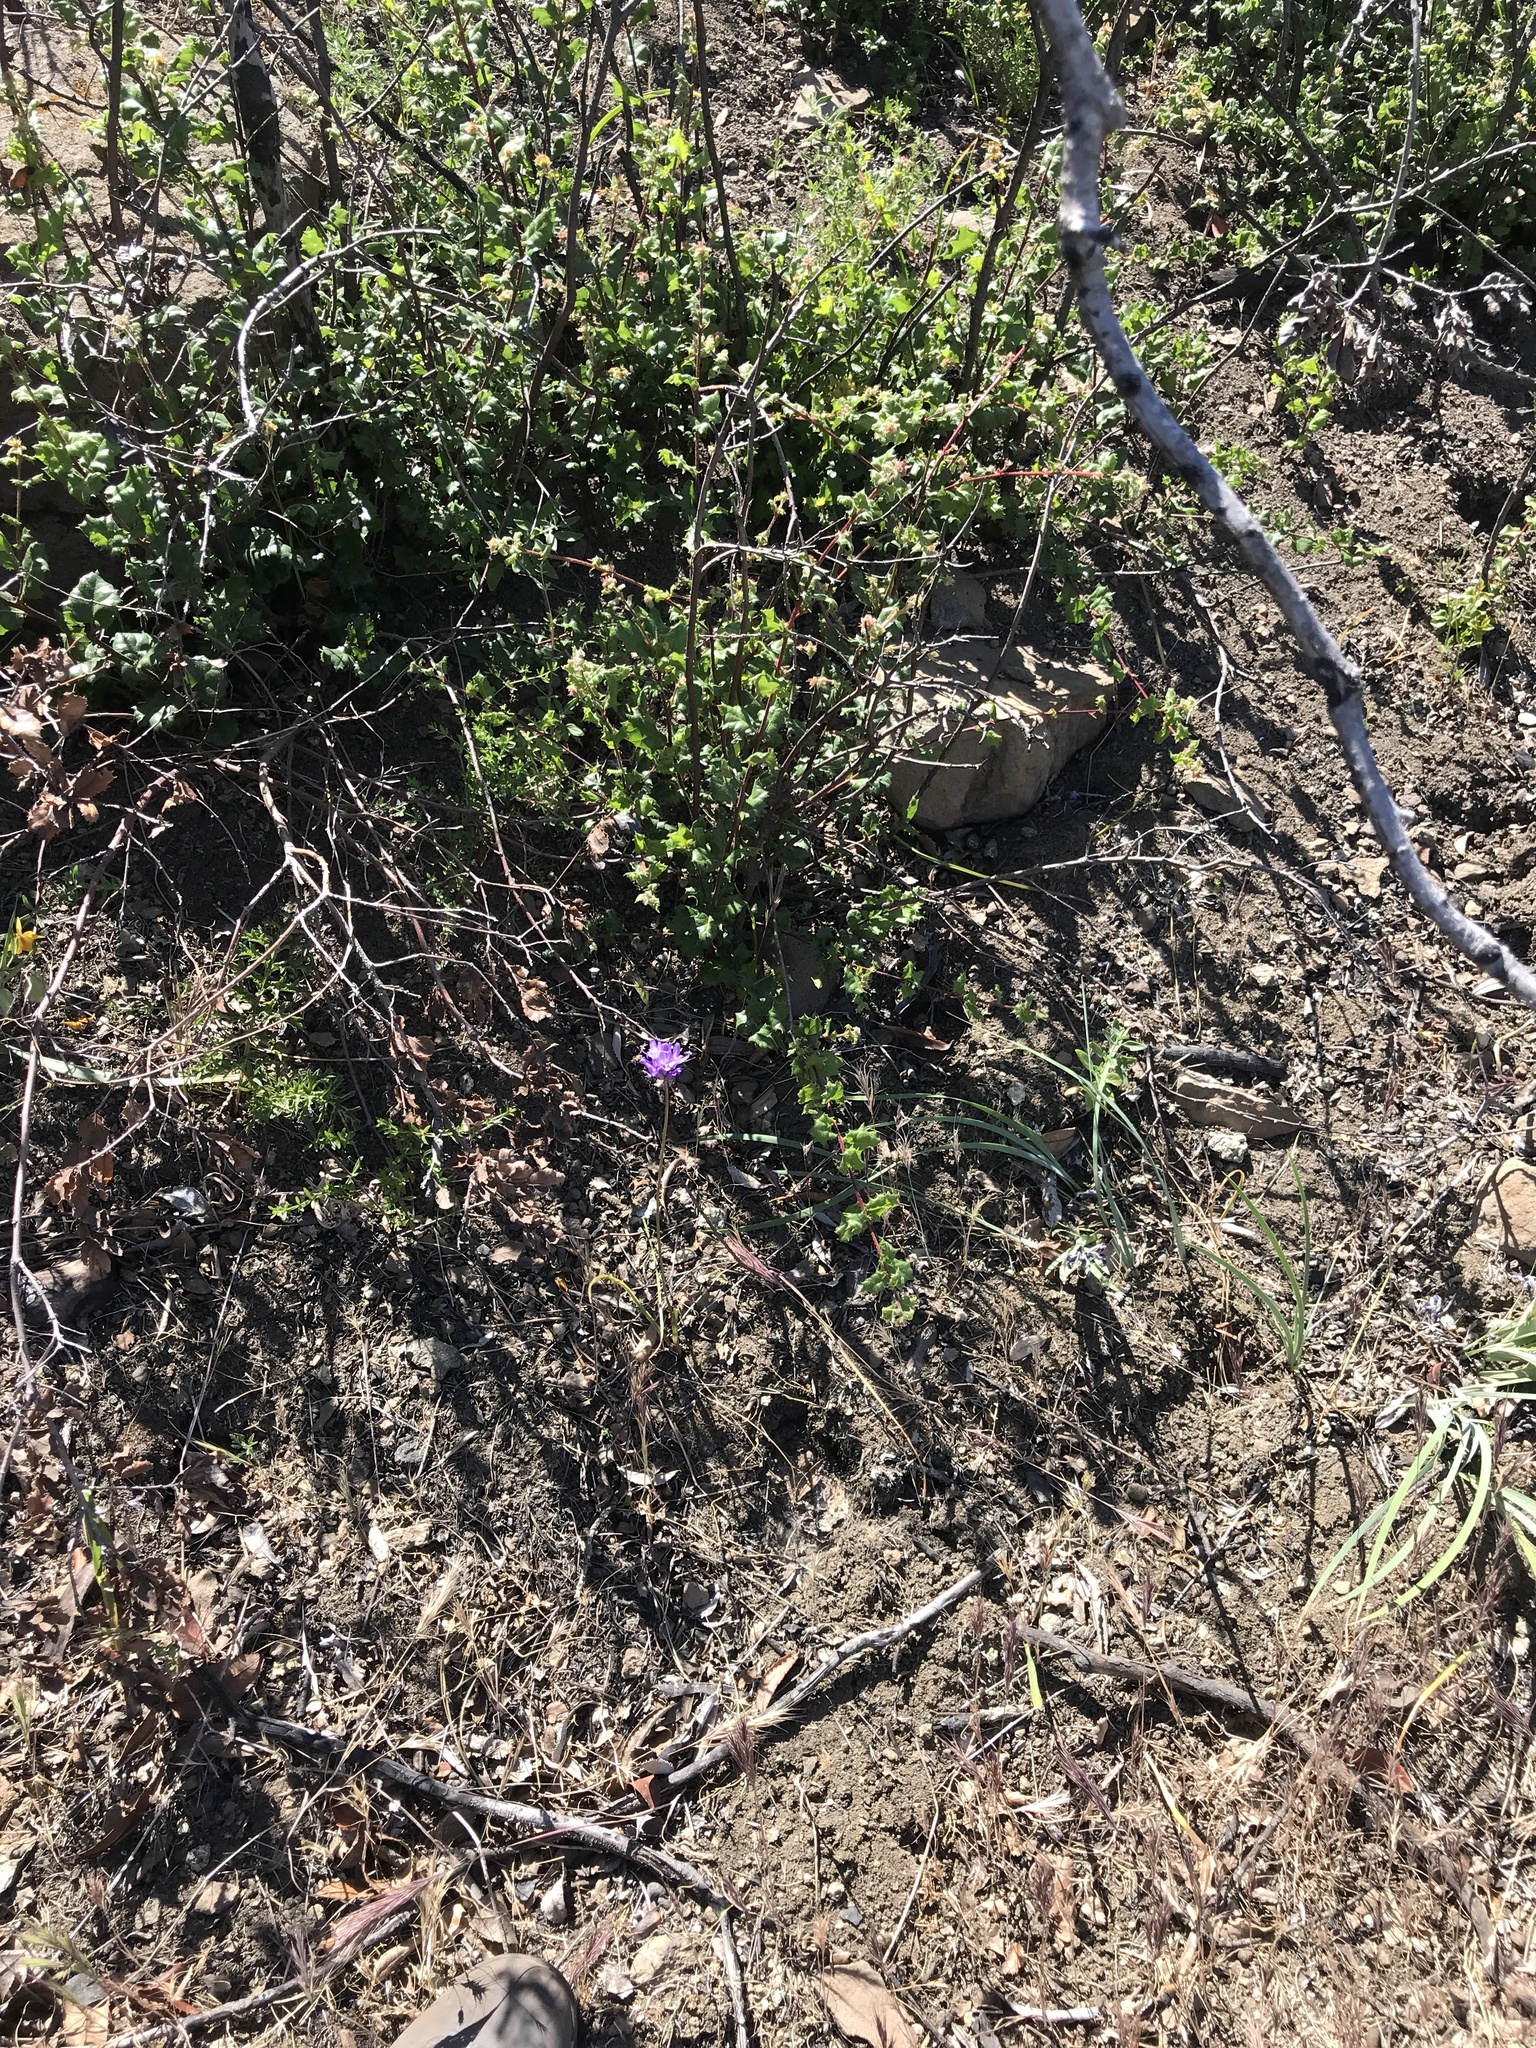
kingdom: Plantae
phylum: Tracheophyta
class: Liliopsida
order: Asparagales
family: Asparagaceae
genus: Dichelostemma
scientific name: Dichelostemma congestum
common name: Fork-tooth ookow
